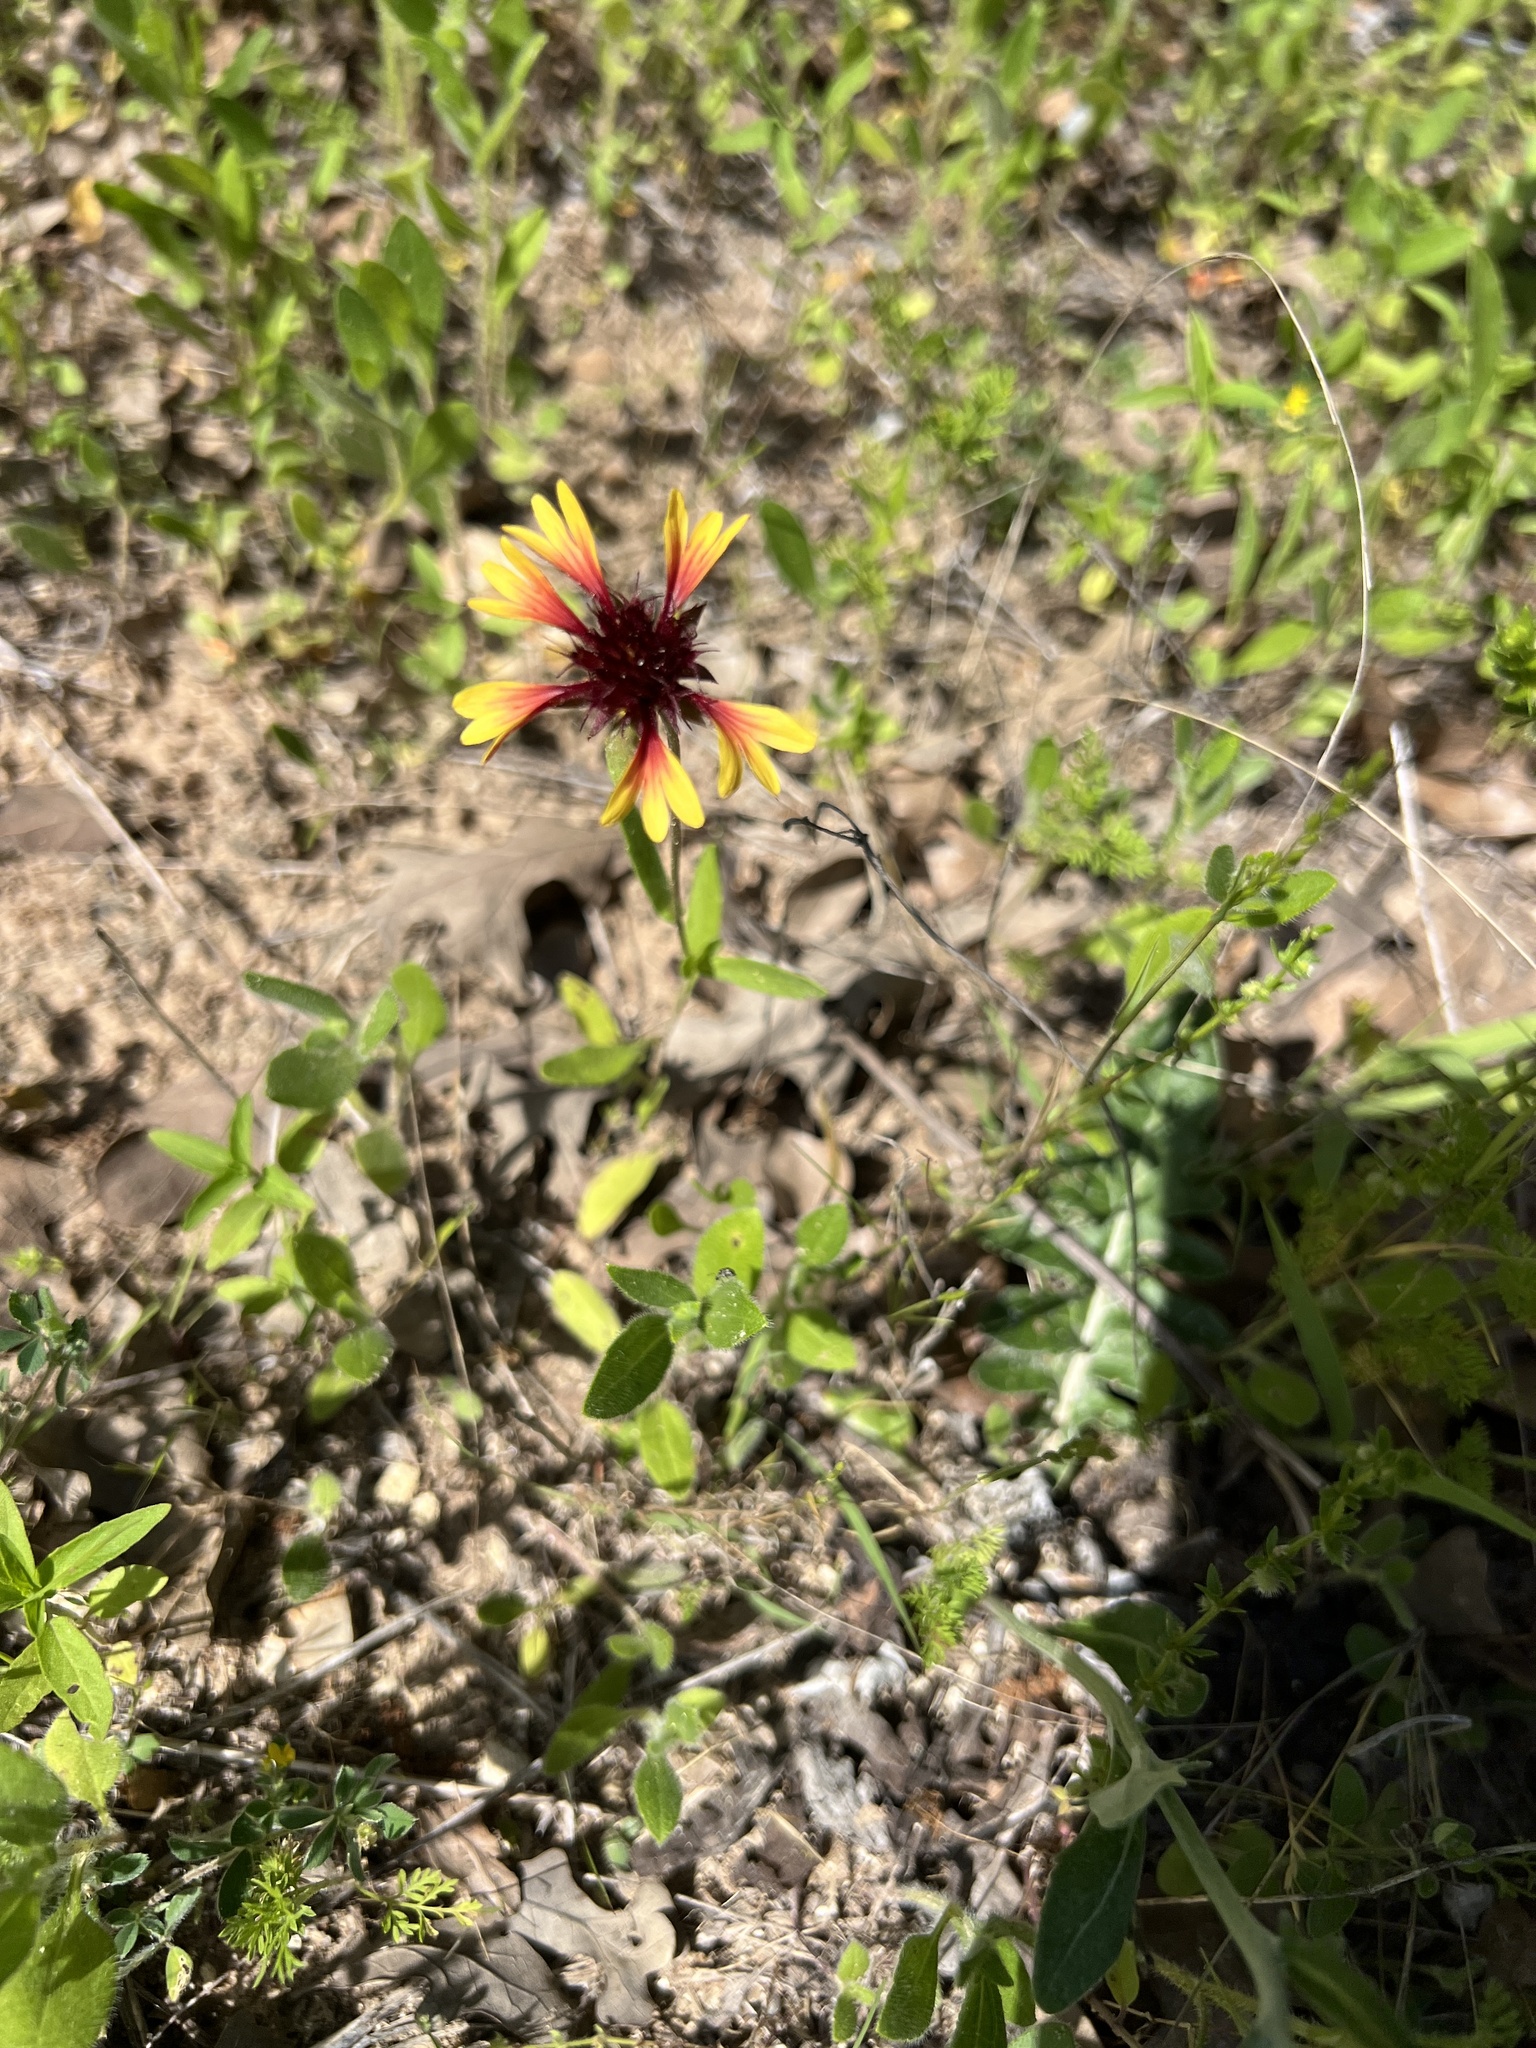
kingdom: Plantae
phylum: Tracheophyta
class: Magnoliopsida
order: Asterales
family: Asteraceae
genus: Gaillardia
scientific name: Gaillardia aestivalis
